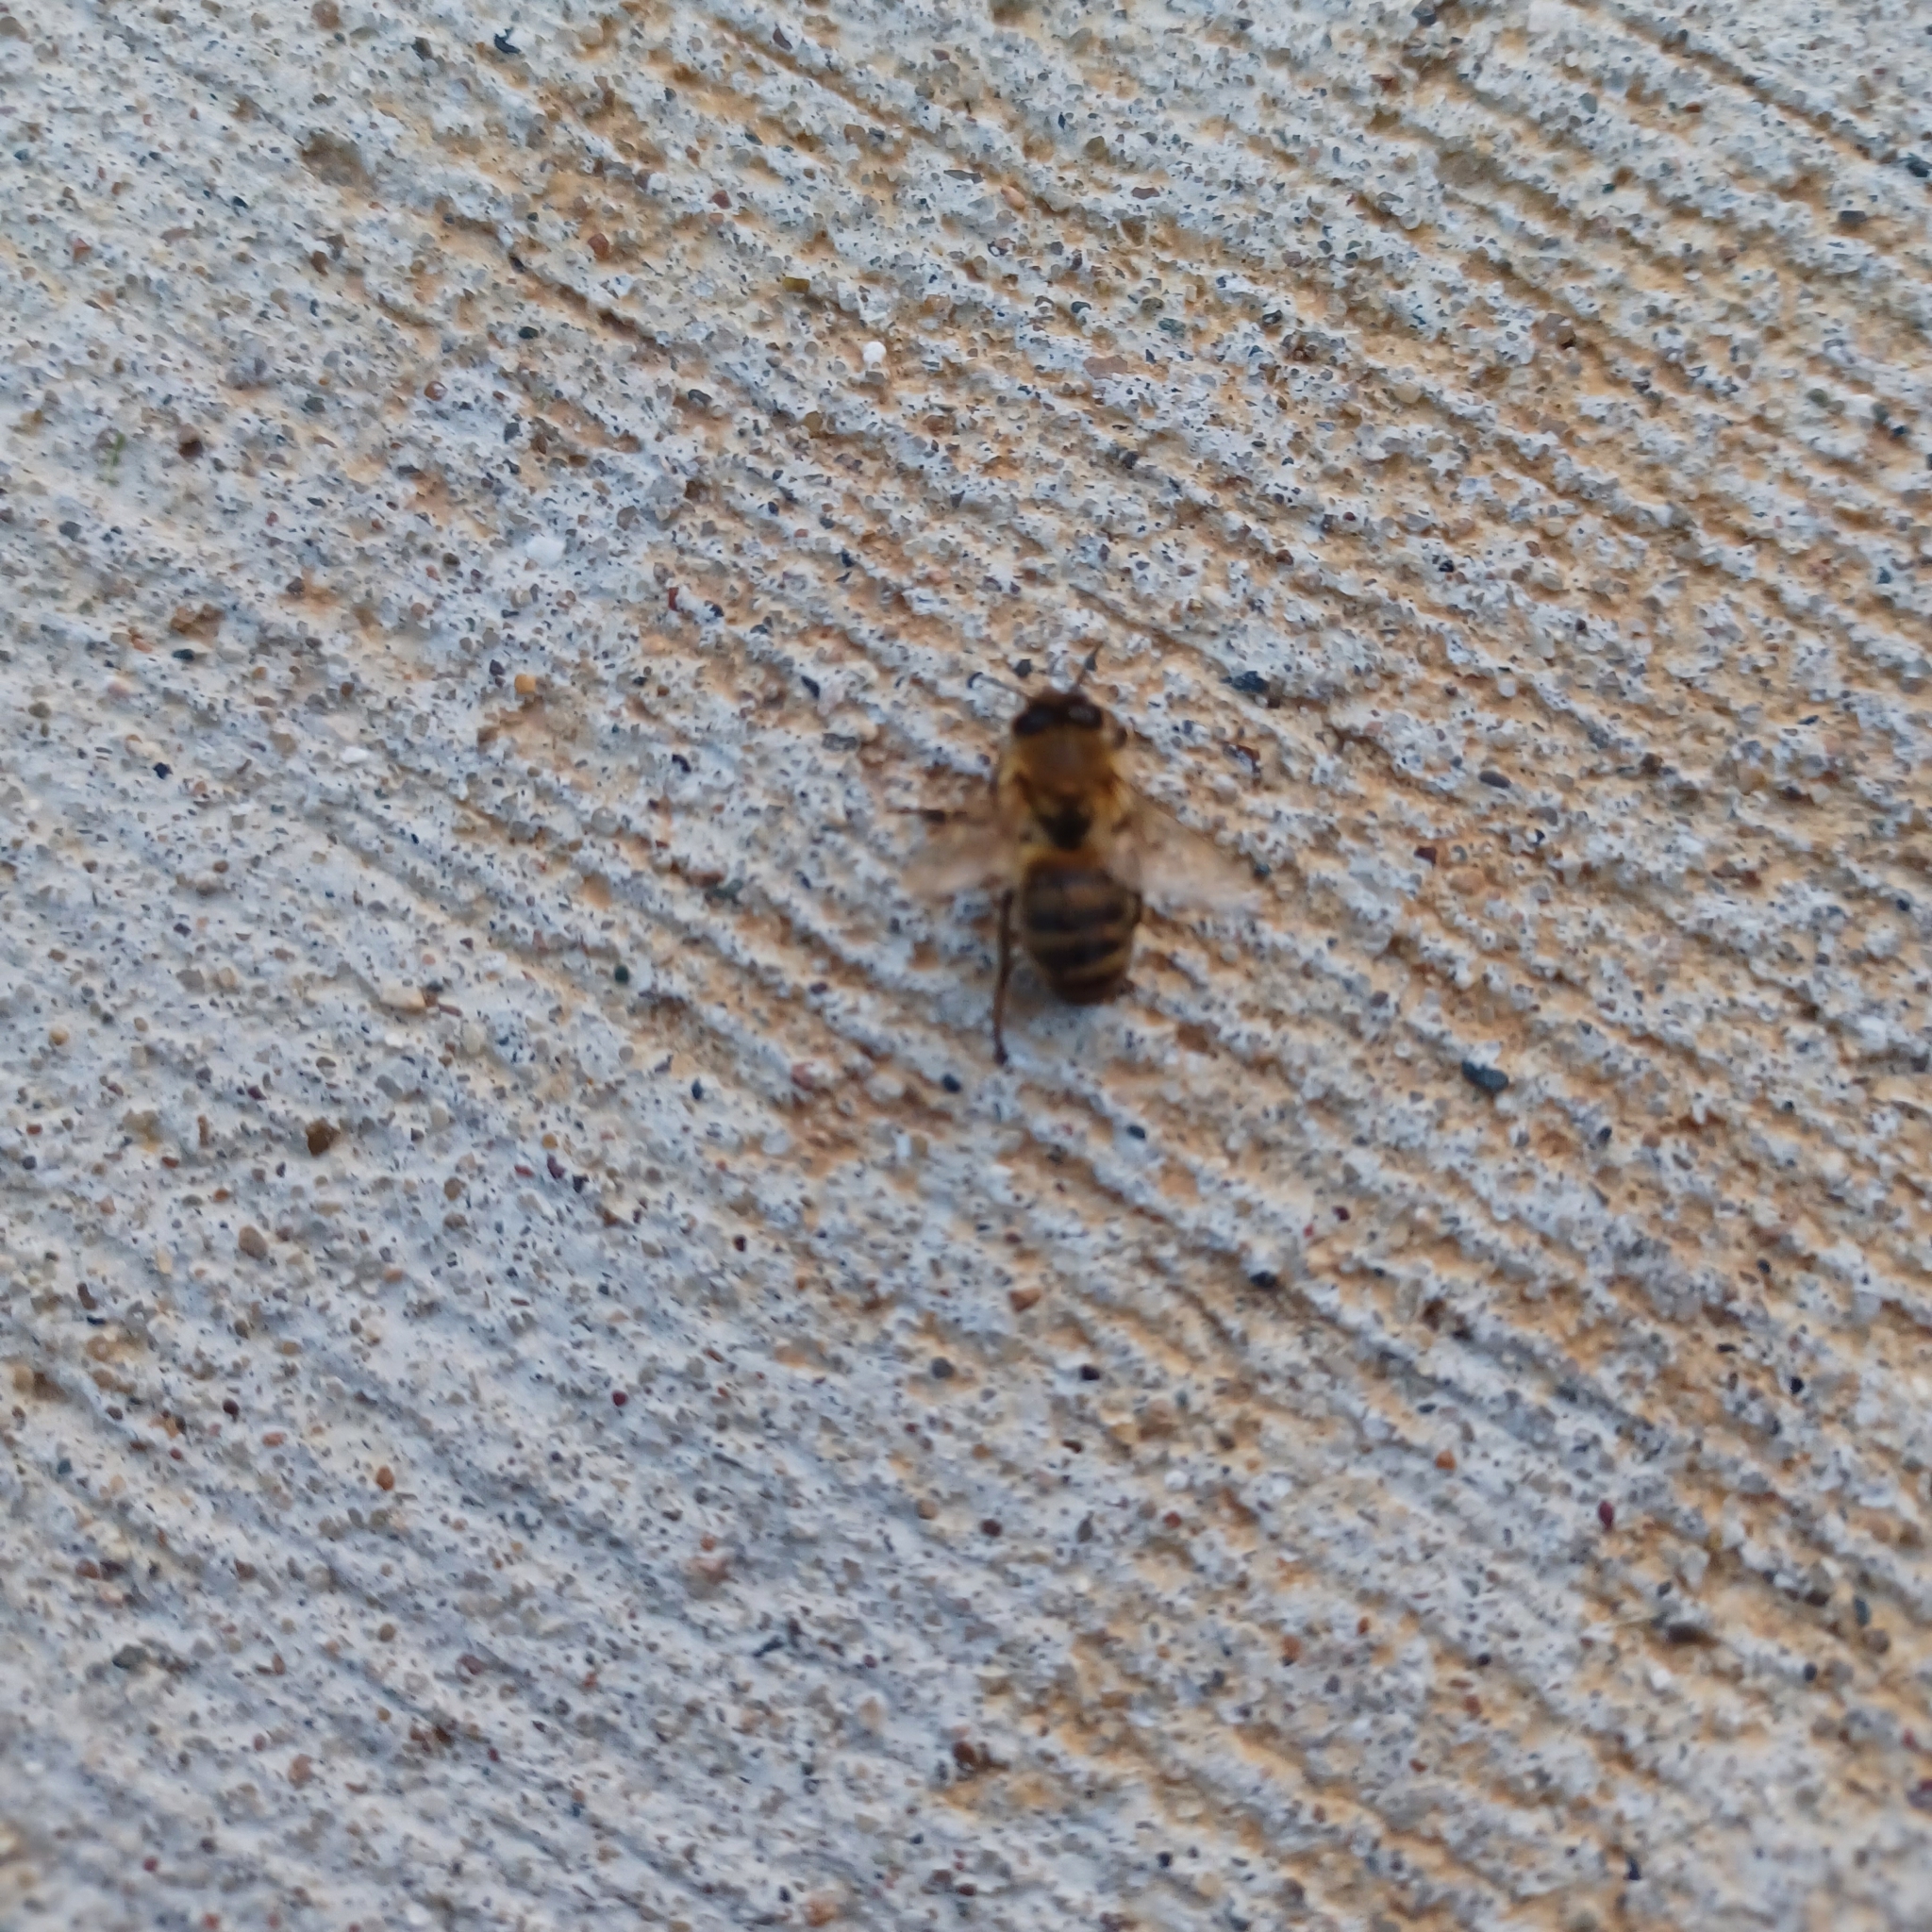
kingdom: Animalia
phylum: Arthropoda
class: Insecta
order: Hymenoptera
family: Apidae
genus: Apis
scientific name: Apis mellifera
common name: Honey bee
